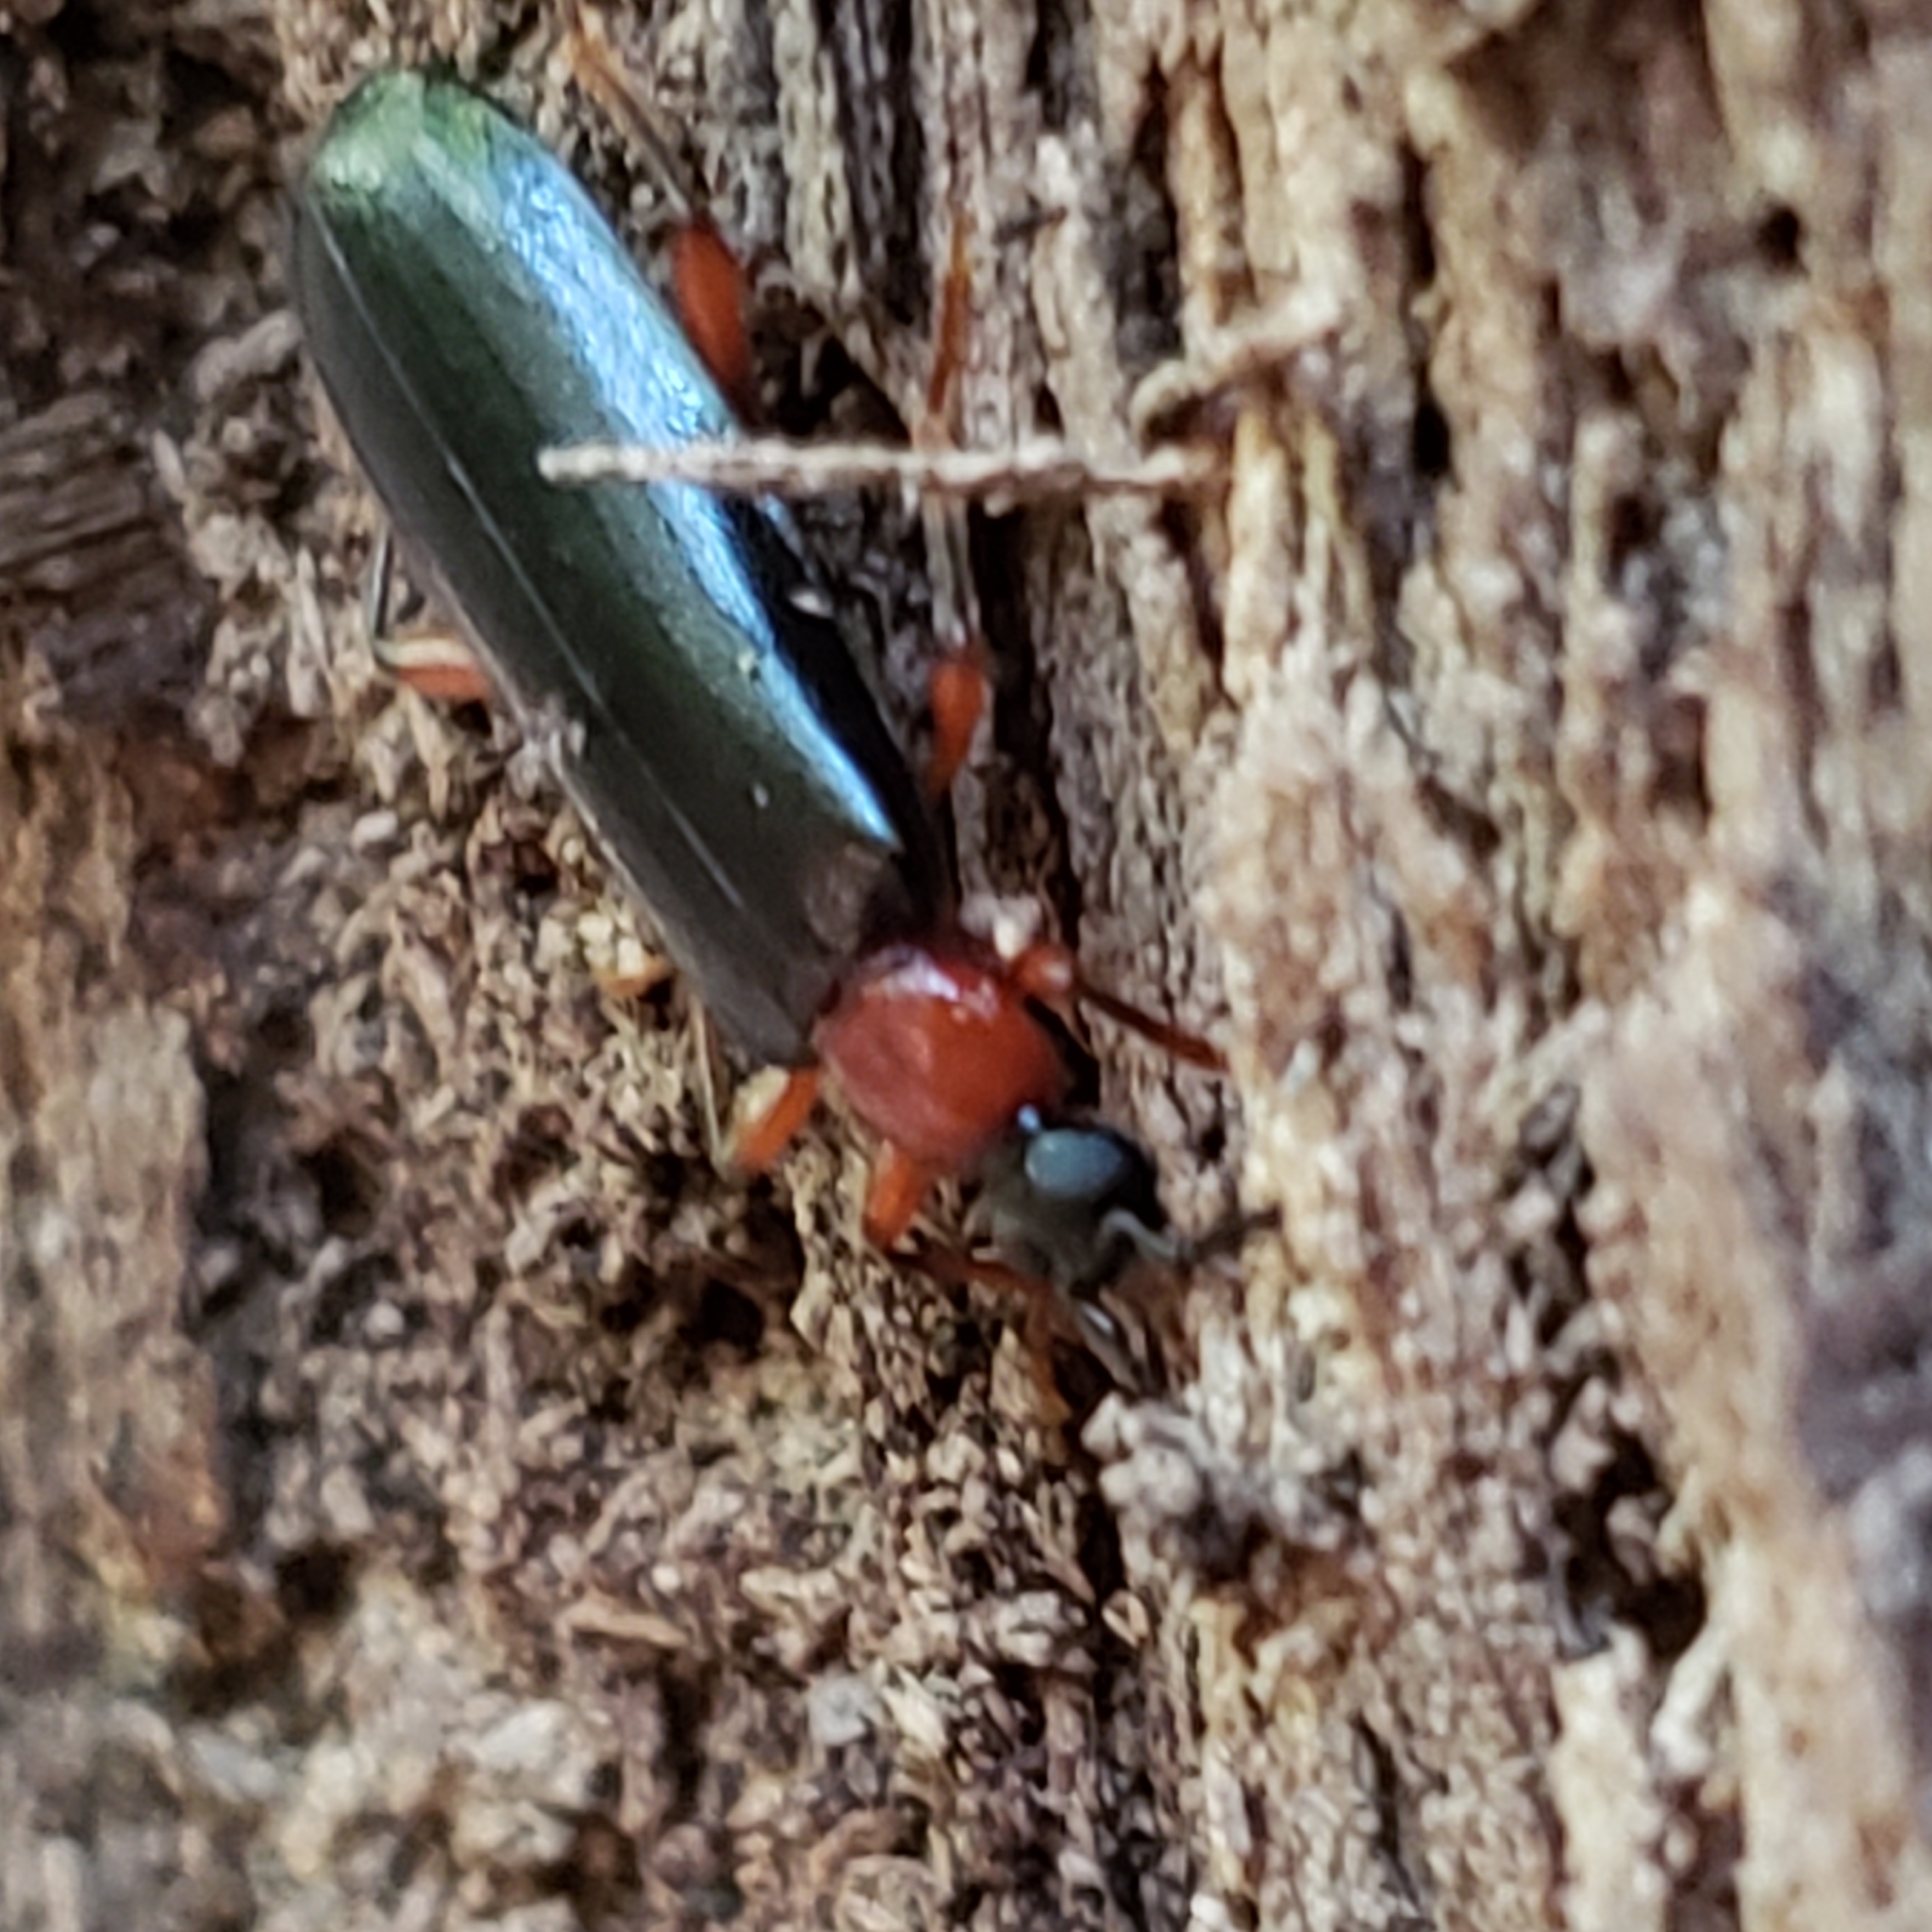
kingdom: Animalia
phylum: Arthropoda
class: Insecta
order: Coleoptera
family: Pyrochroidae
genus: Dendroides
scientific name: Dendroides canadensis
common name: Canada fire-colored beetle
